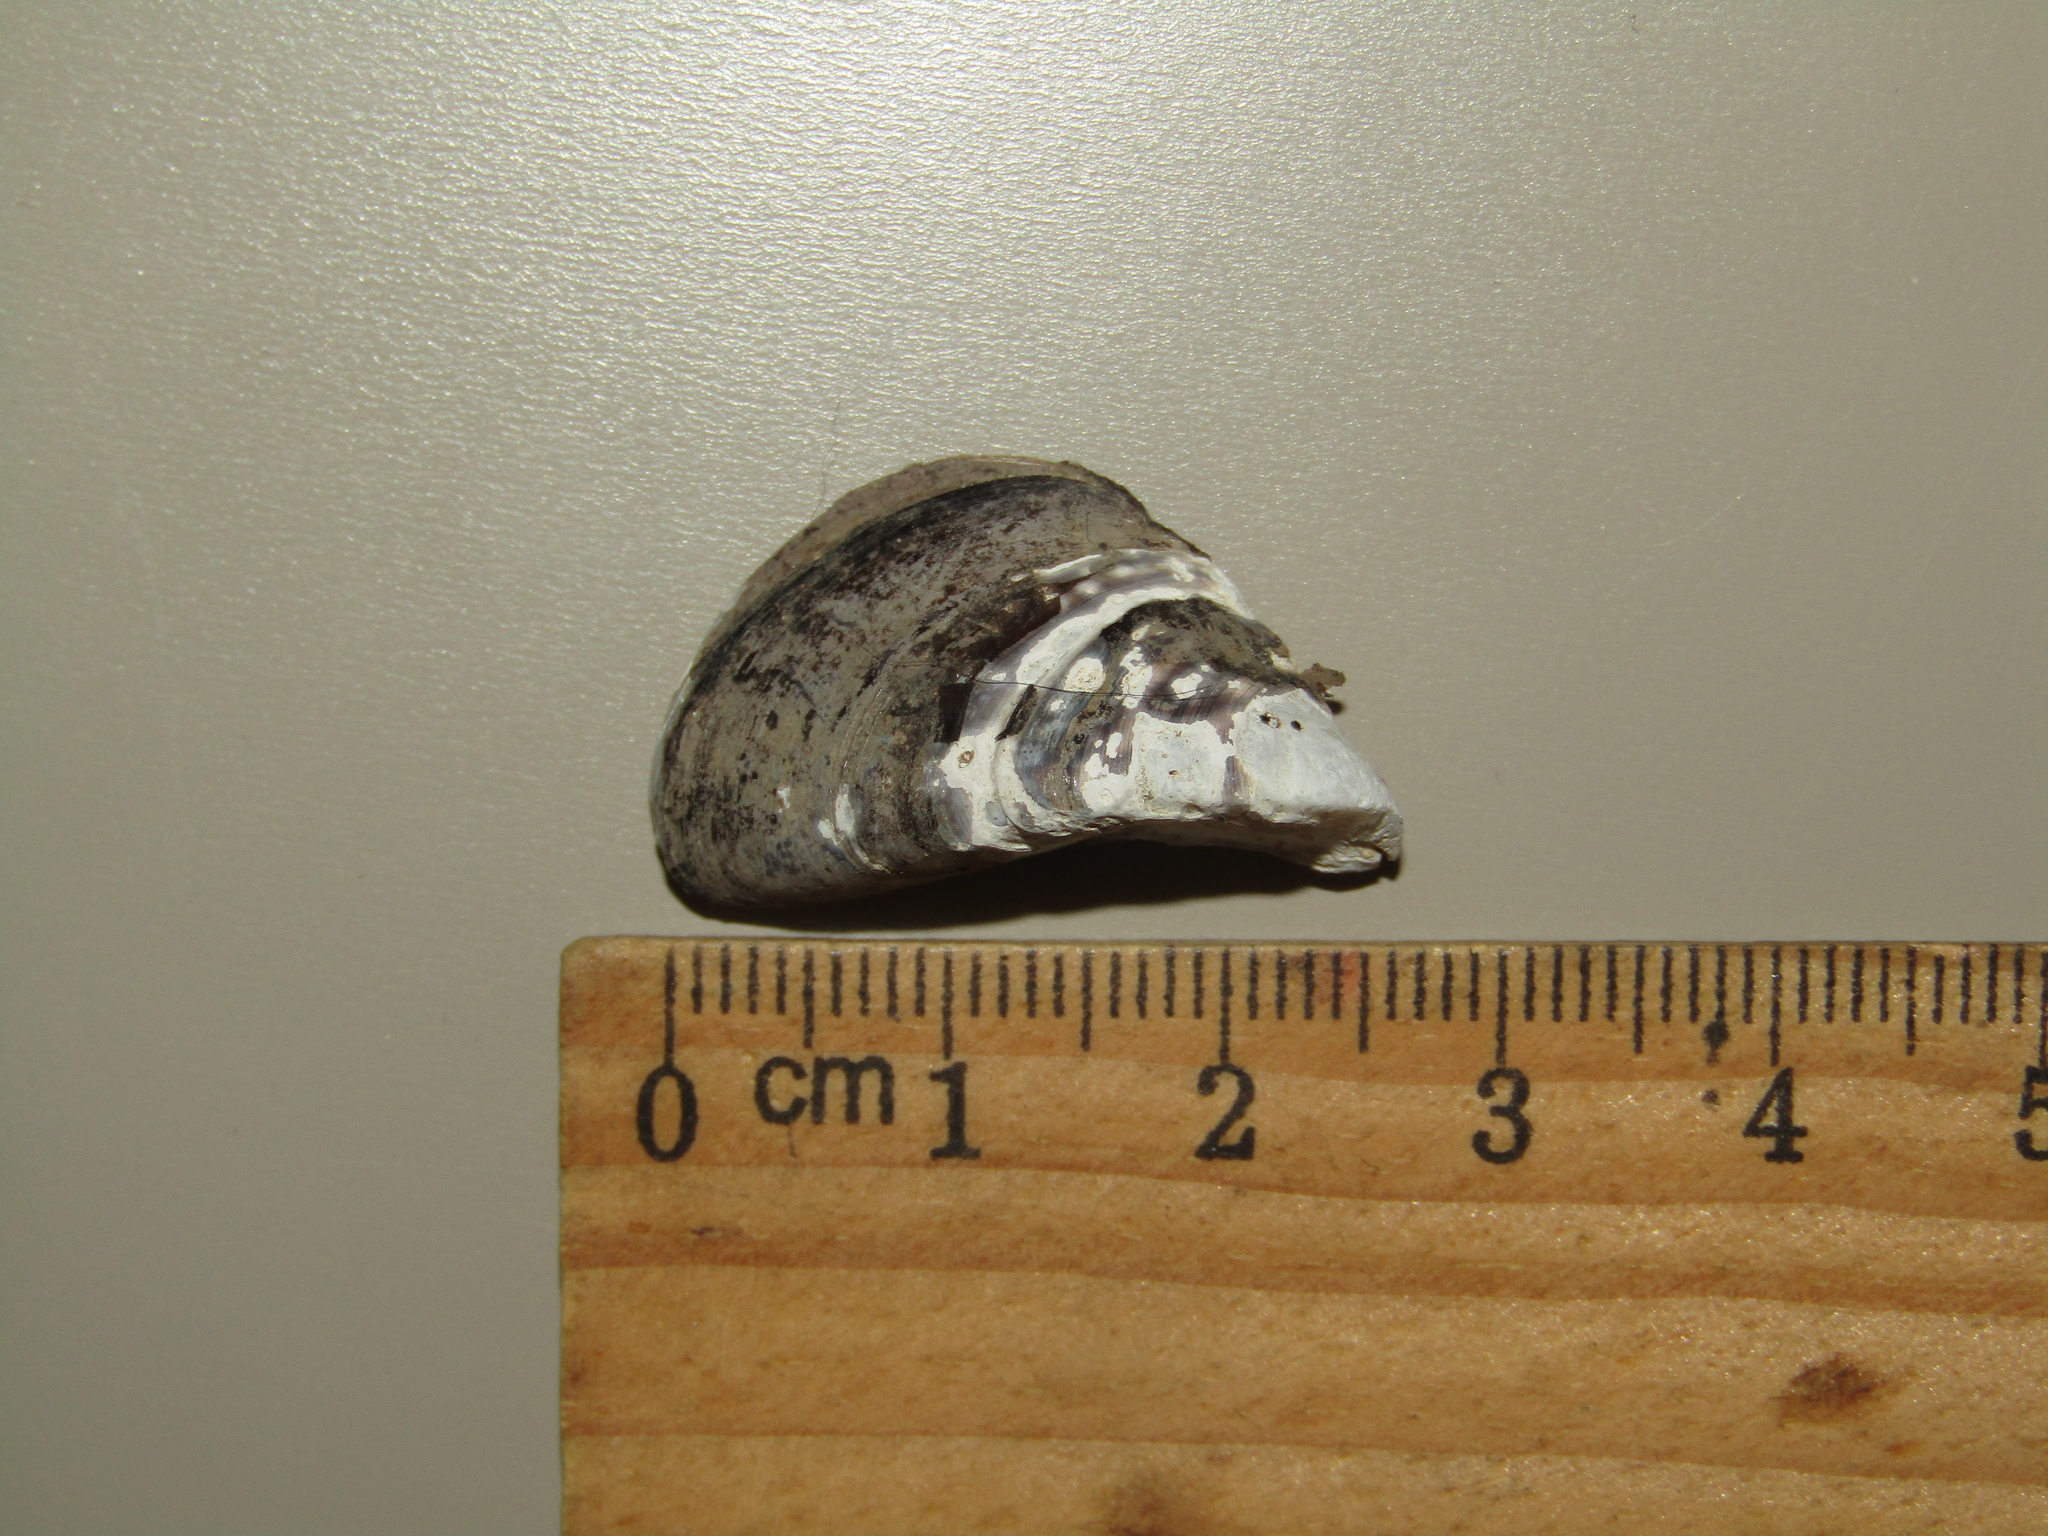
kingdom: Animalia
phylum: Mollusca
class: Bivalvia
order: Myida
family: Dreissenidae
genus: Dreissena
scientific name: Dreissena polymorpha
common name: Zebra mussel
